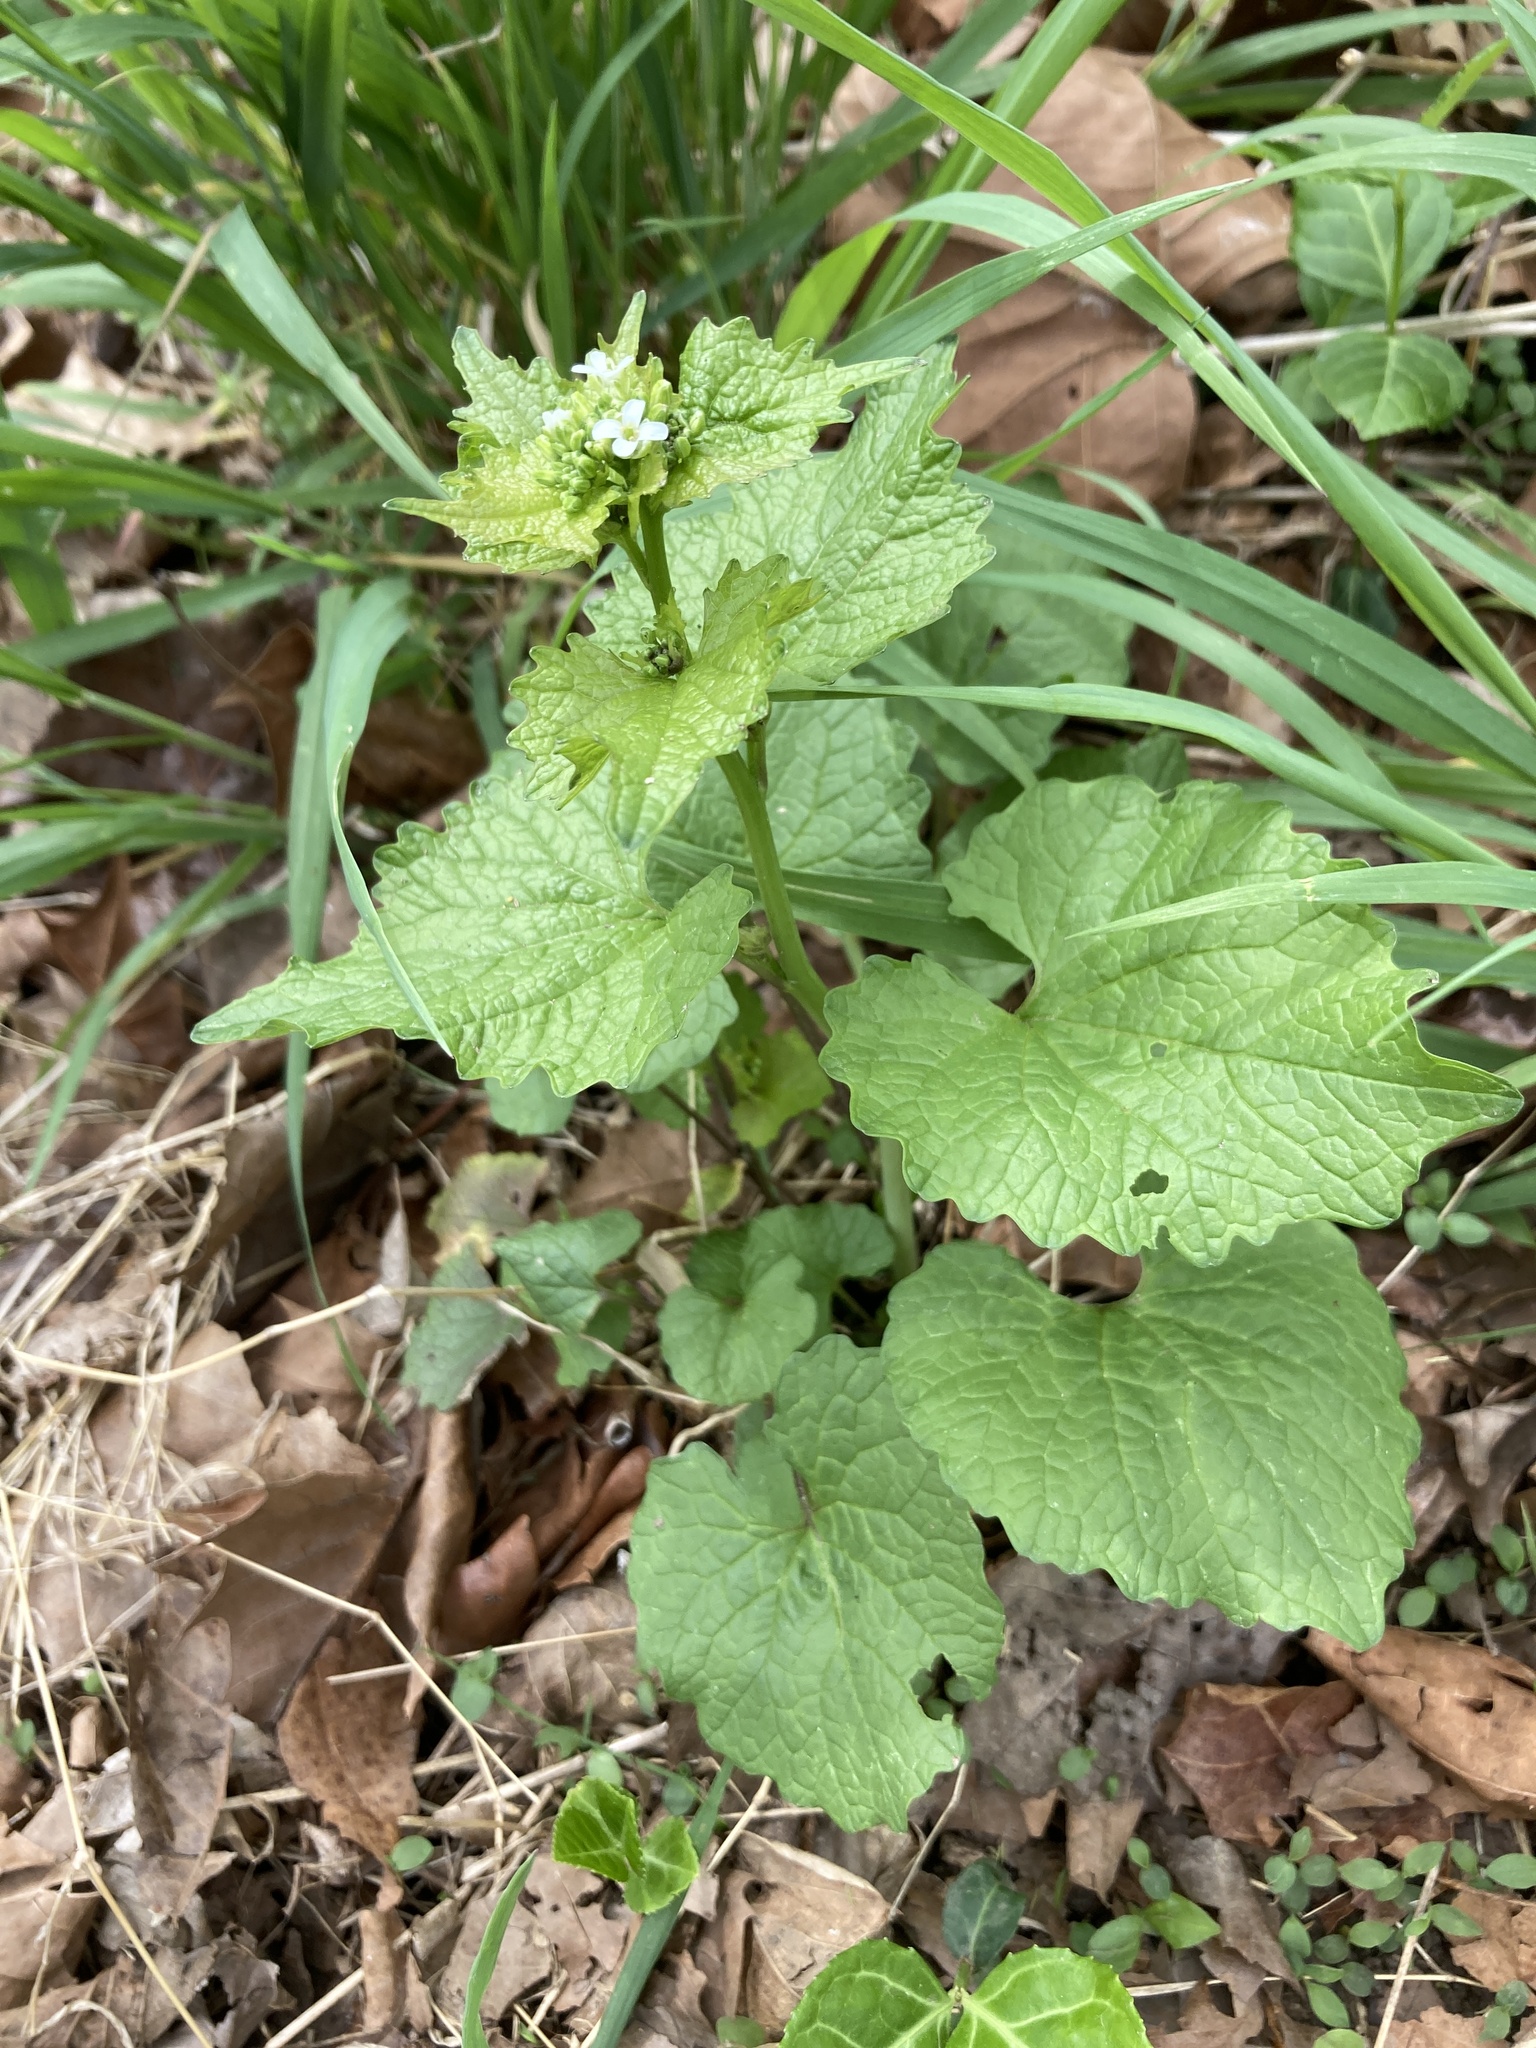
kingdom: Plantae
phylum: Tracheophyta
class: Magnoliopsida
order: Brassicales
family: Brassicaceae
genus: Alliaria
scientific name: Alliaria petiolata
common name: Garlic mustard
